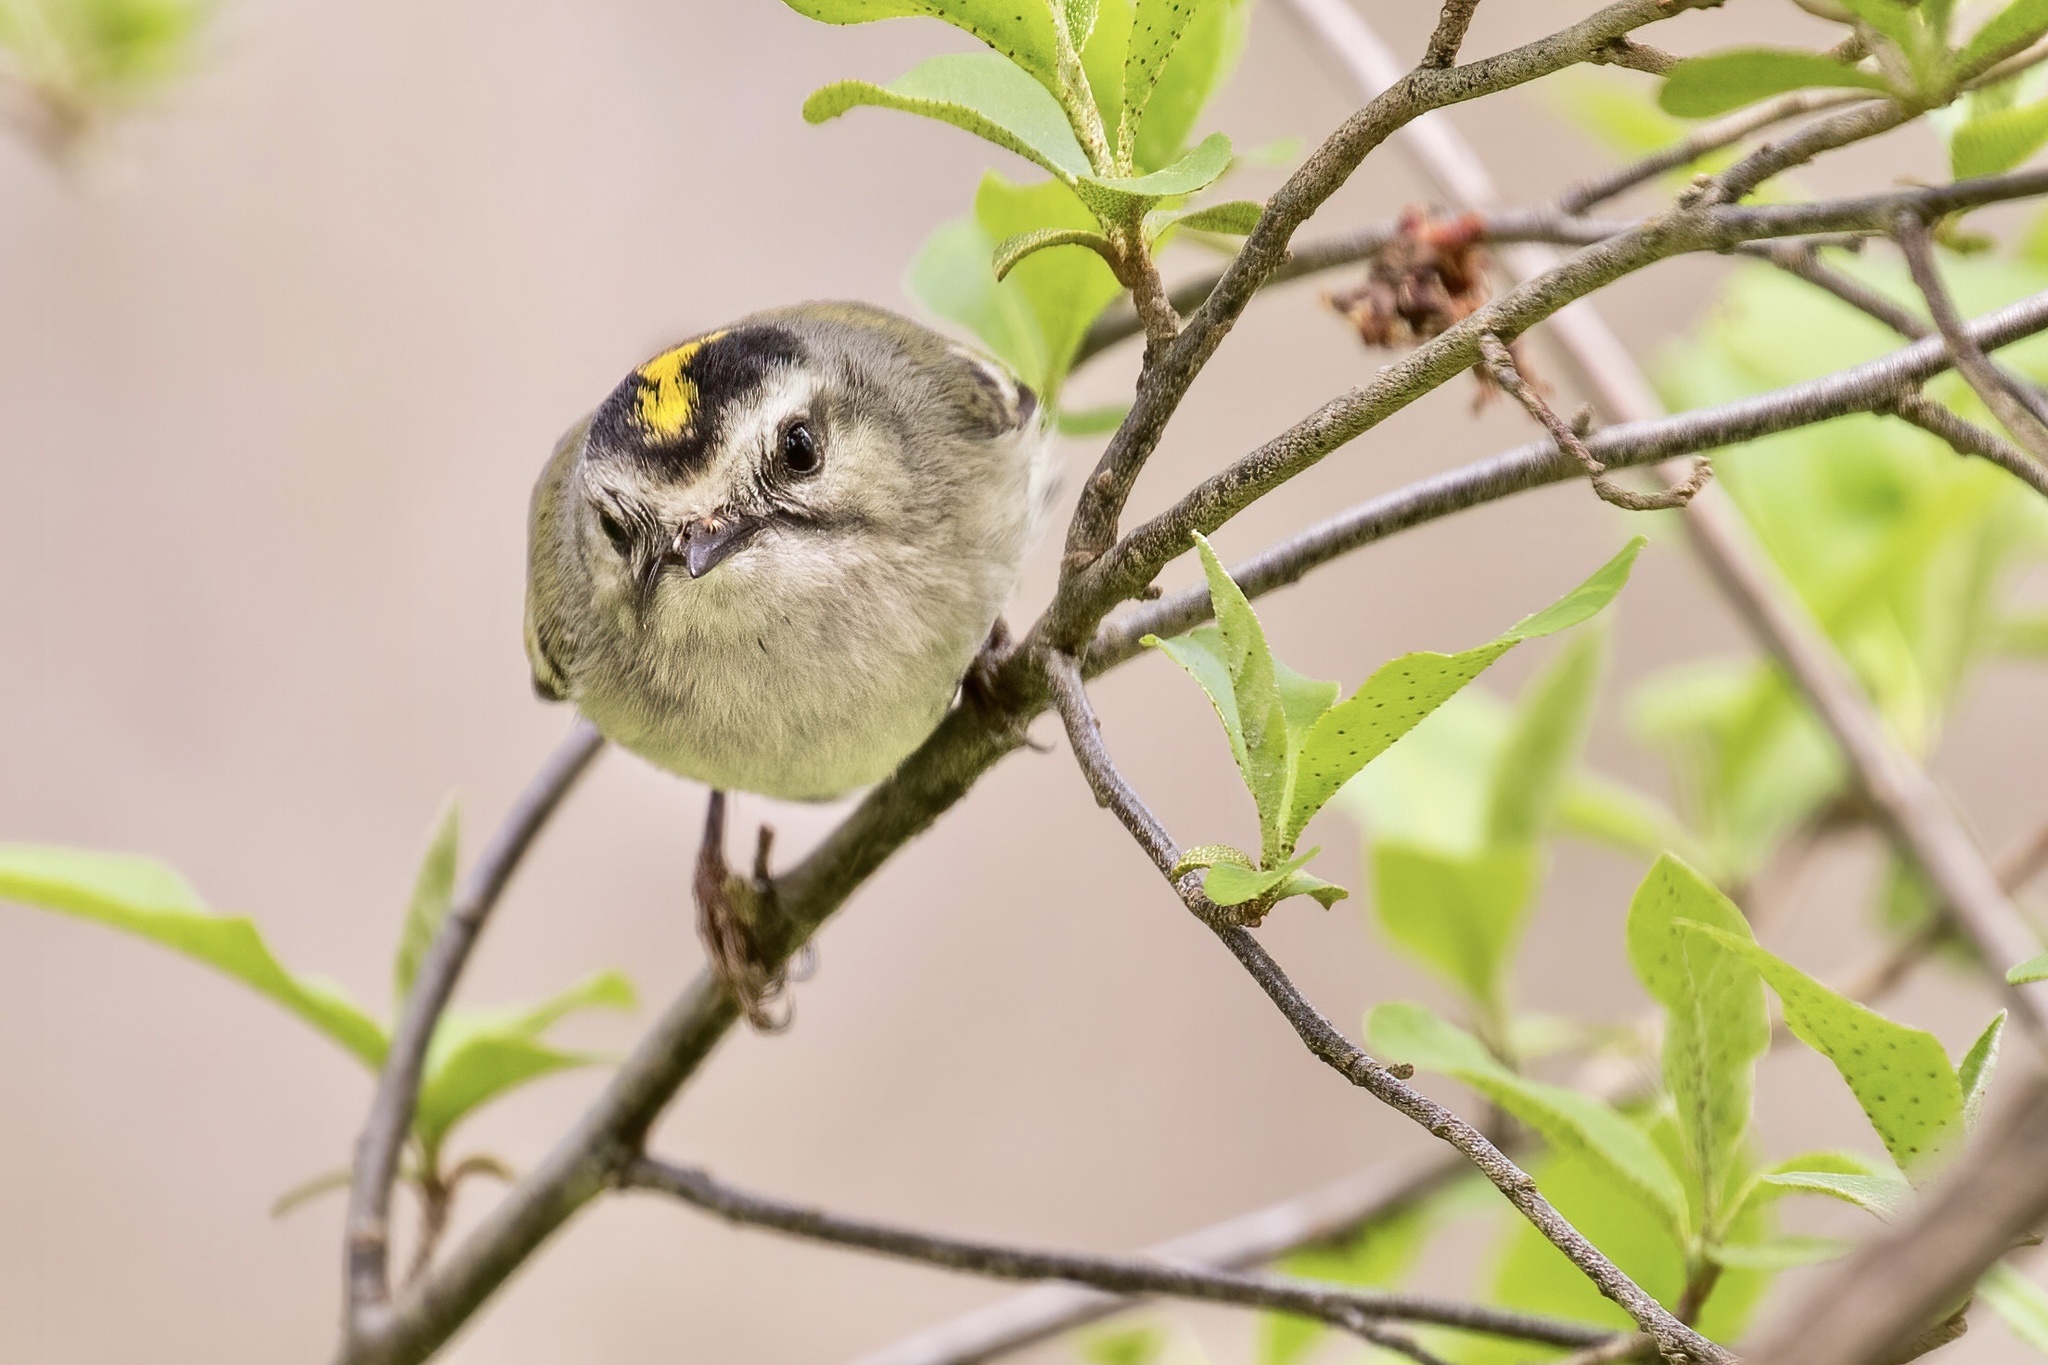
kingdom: Animalia
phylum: Chordata
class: Aves
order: Passeriformes
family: Regulidae
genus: Regulus
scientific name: Regulus satrapa
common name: Golden-crowned kinglet
